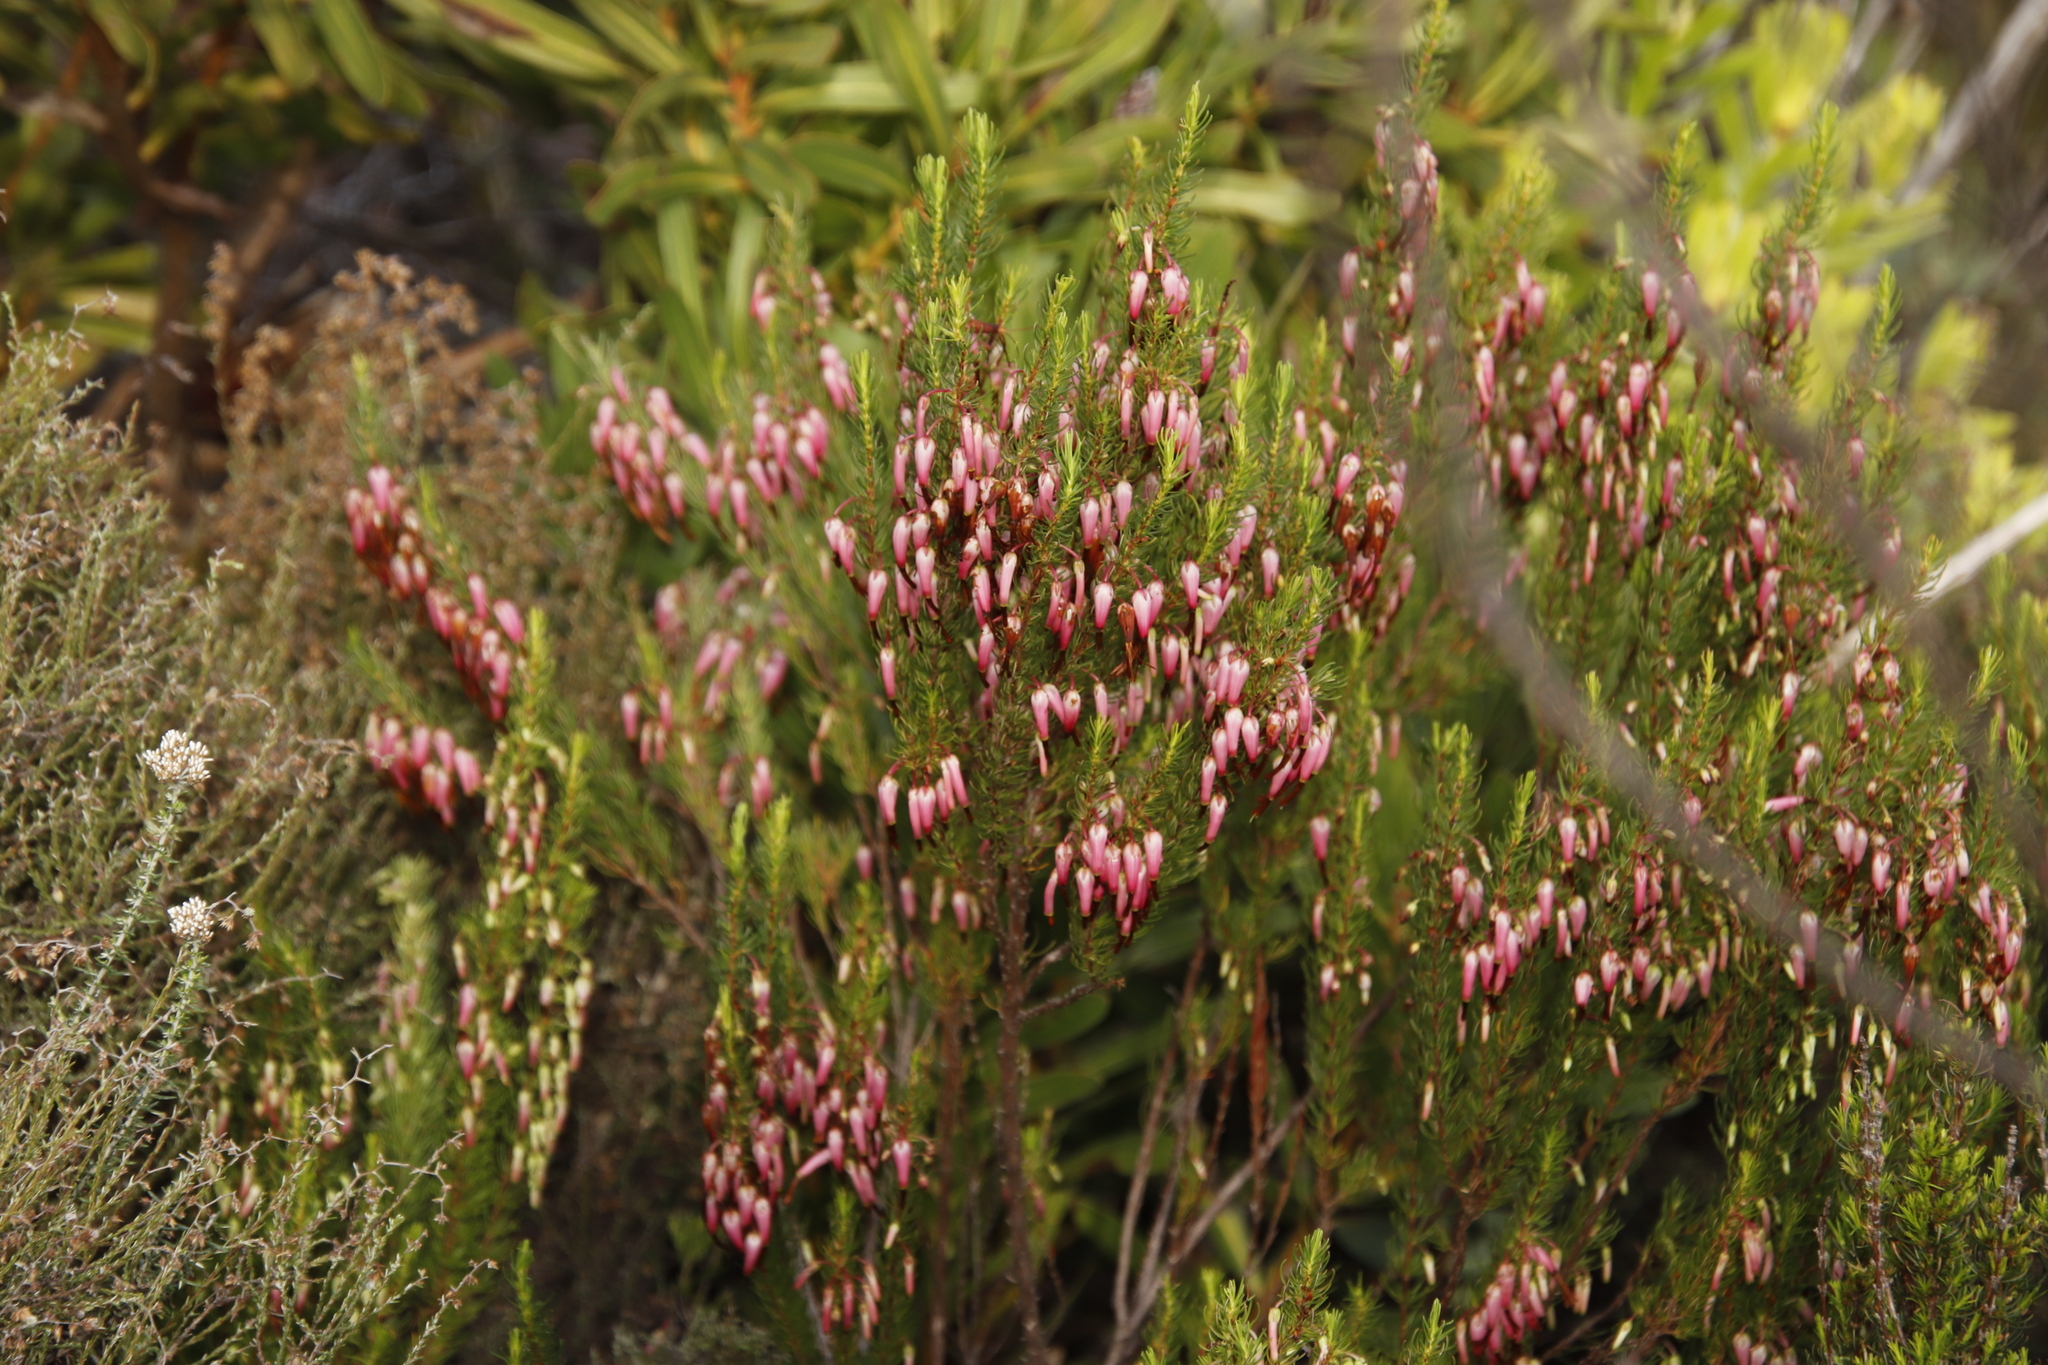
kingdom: Plantae
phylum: Tracheophyta
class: Magnoliopsida
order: Ericales
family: Ericaceae
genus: Erica
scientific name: Erica plukenetii
